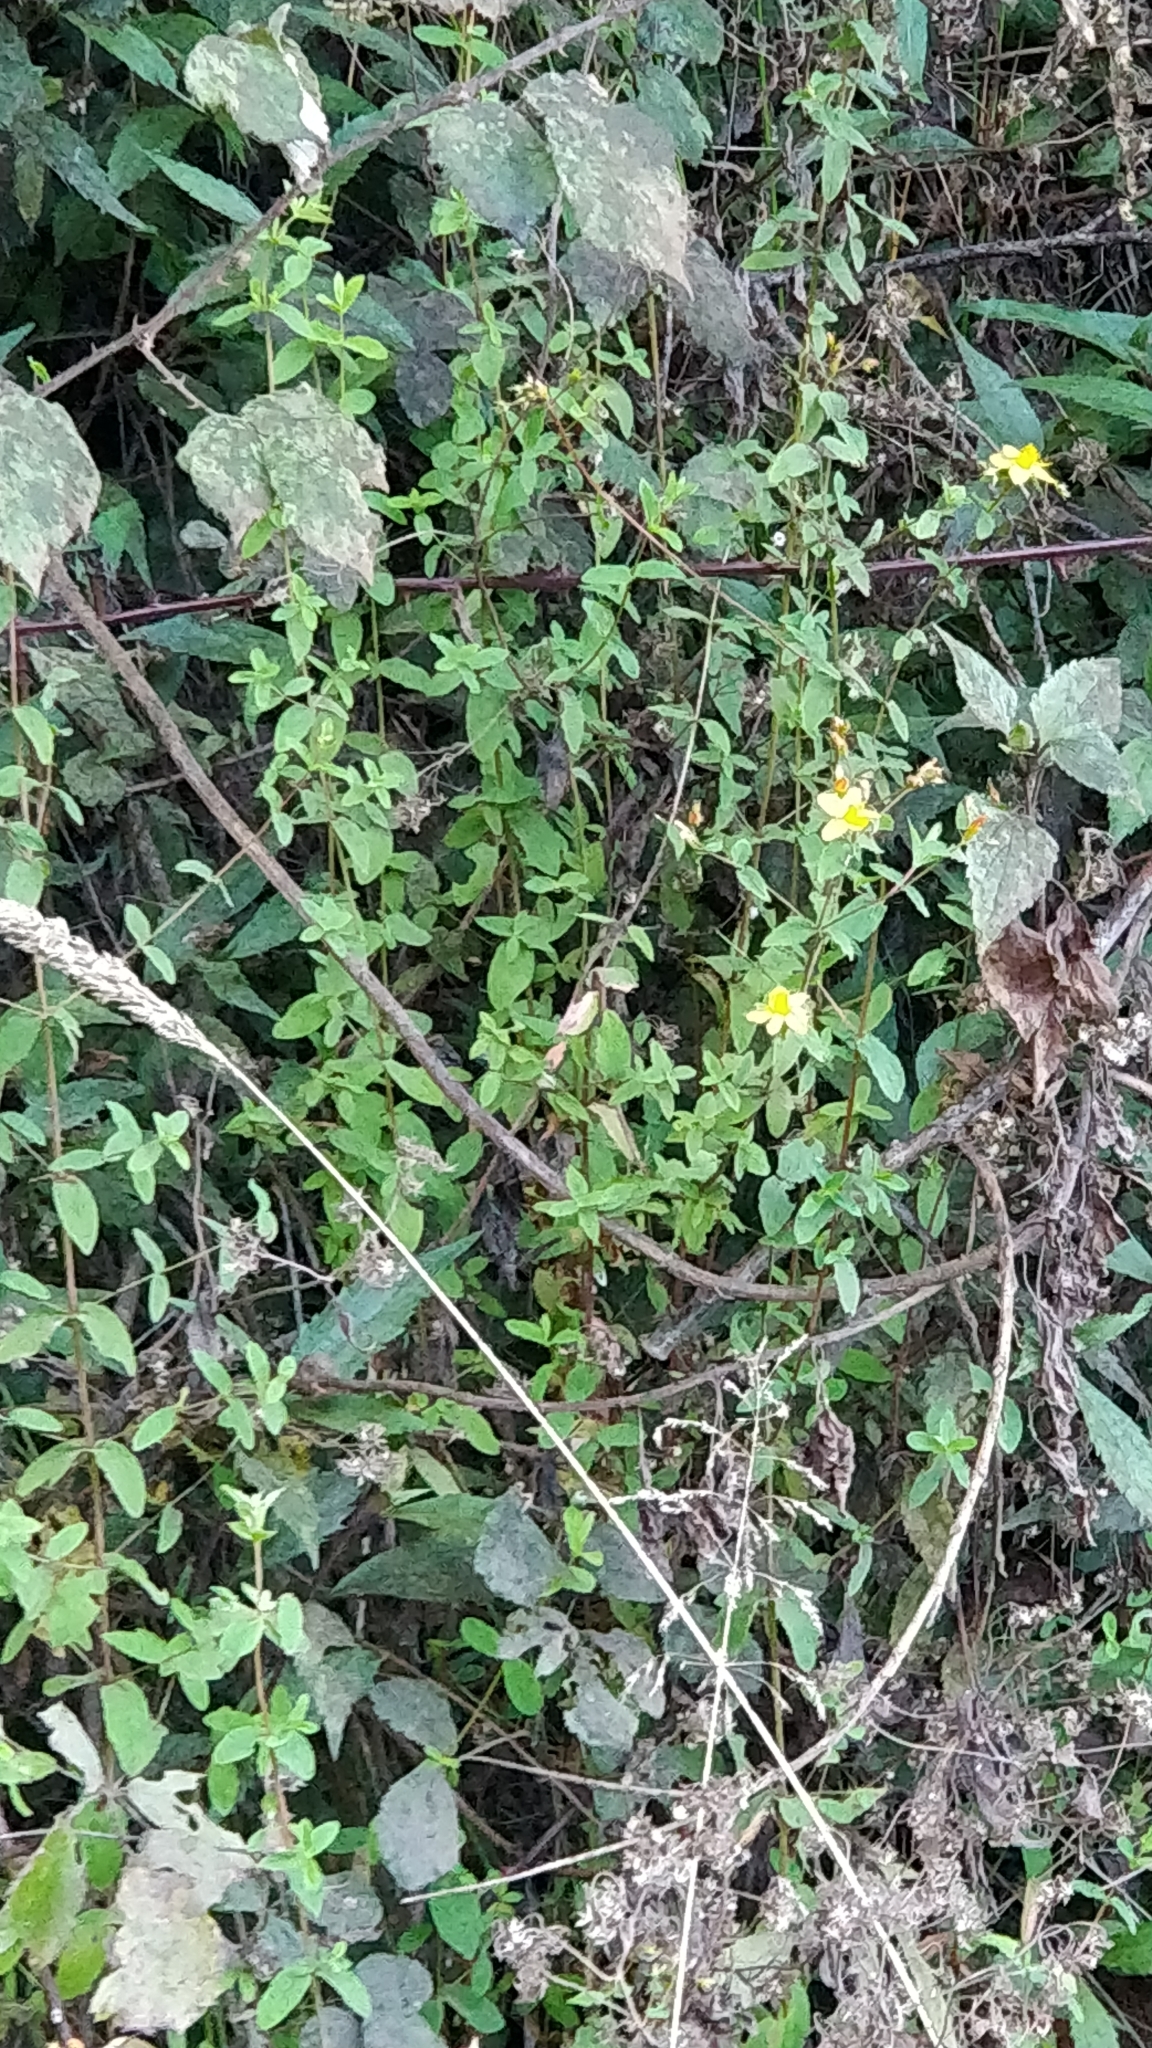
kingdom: Plantae
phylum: Tracheophyta
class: Magnoliopsida
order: Malpighiales
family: Hypericaceae
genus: Hypericum
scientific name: Hypericum undulatum
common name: Wavy st. john's-wort
